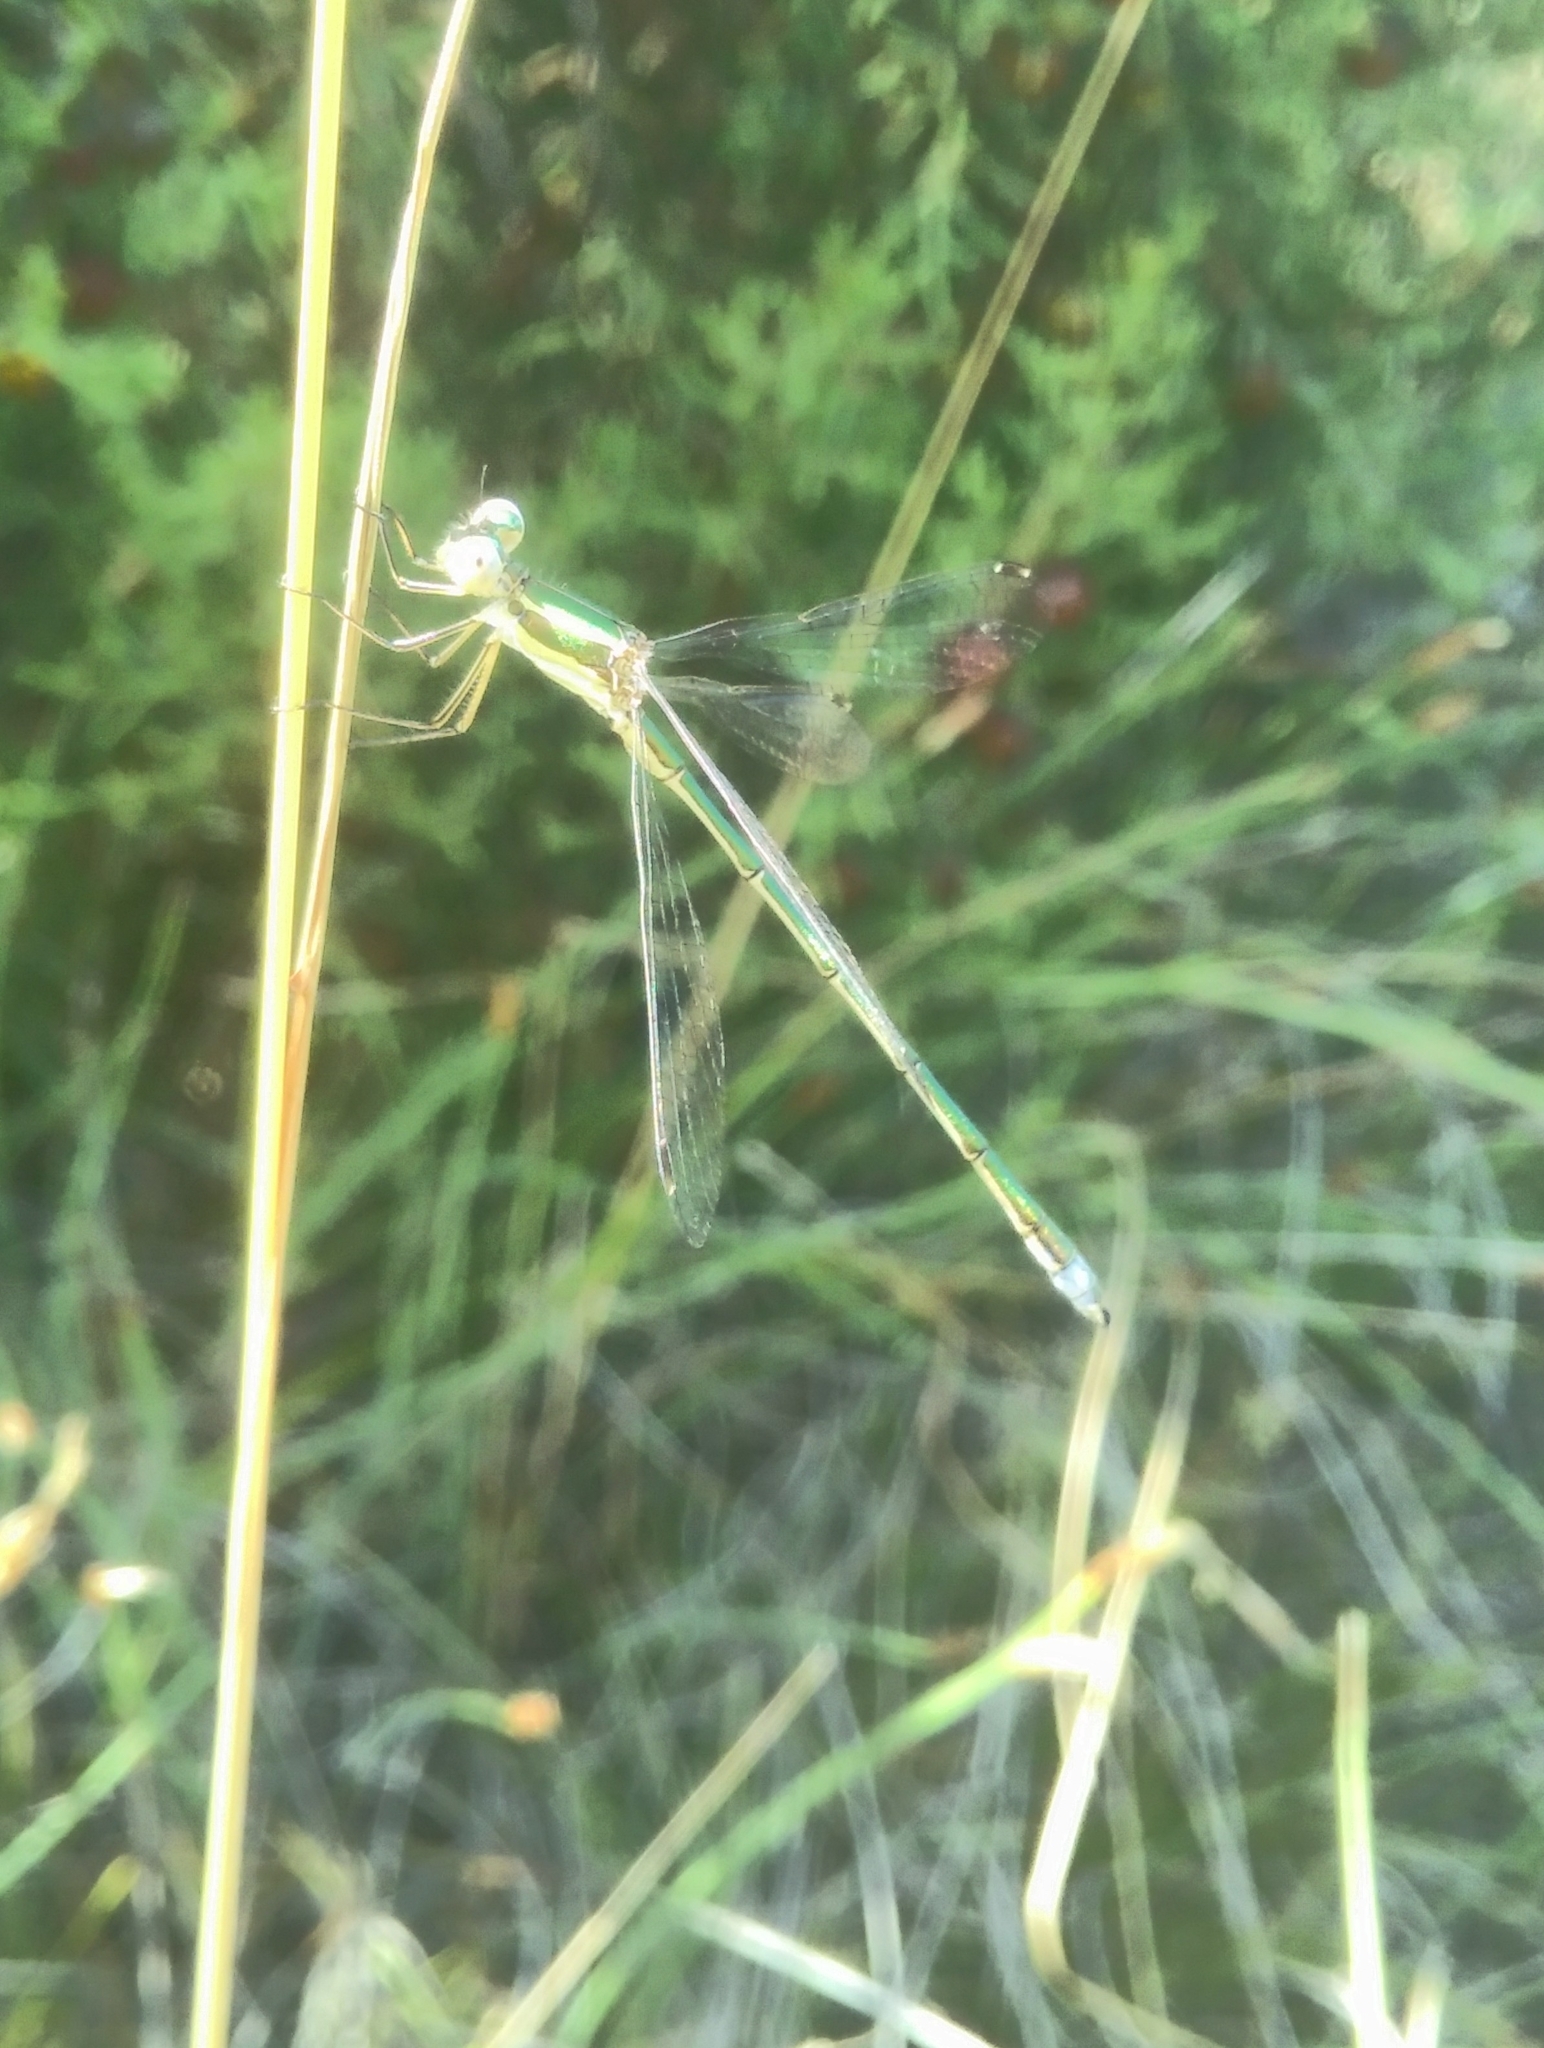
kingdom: Animalia
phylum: Arthropoda
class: Insecta
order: Odonata
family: Lestidae
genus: Lestes
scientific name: Lestes virens
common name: Small emerald spreadwing
